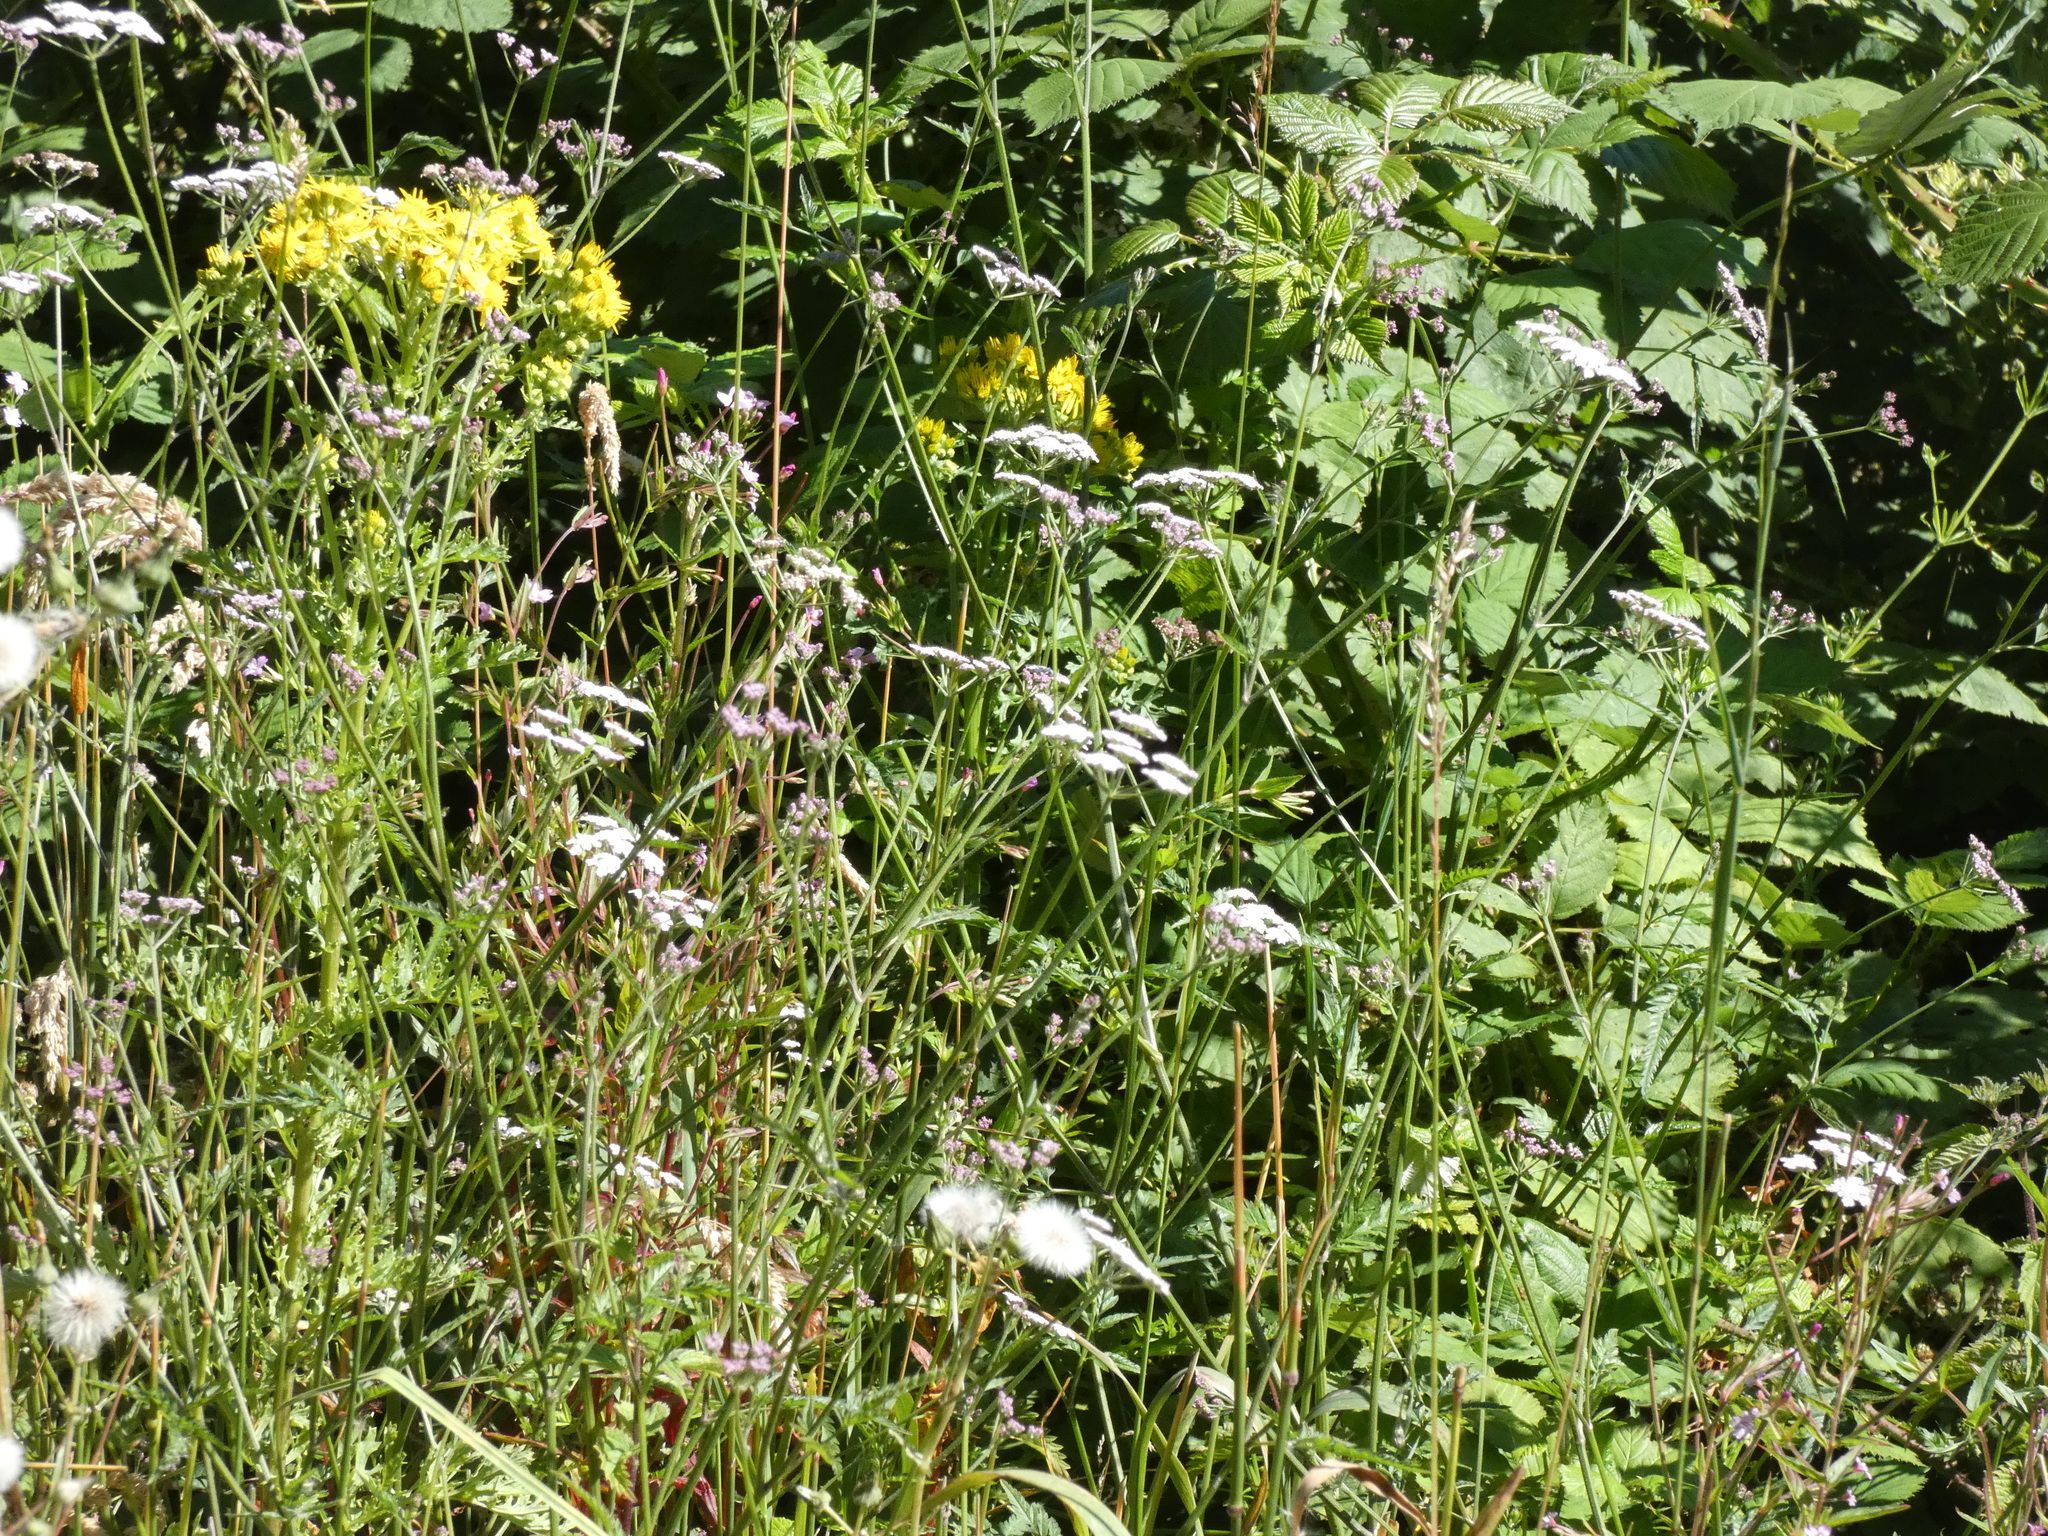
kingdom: Plantae
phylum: Tracheophyta
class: Magnoliopsida
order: Apiales
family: Apiaceae
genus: Torilis
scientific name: Torilis japonica
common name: Upright hedge-parsley
